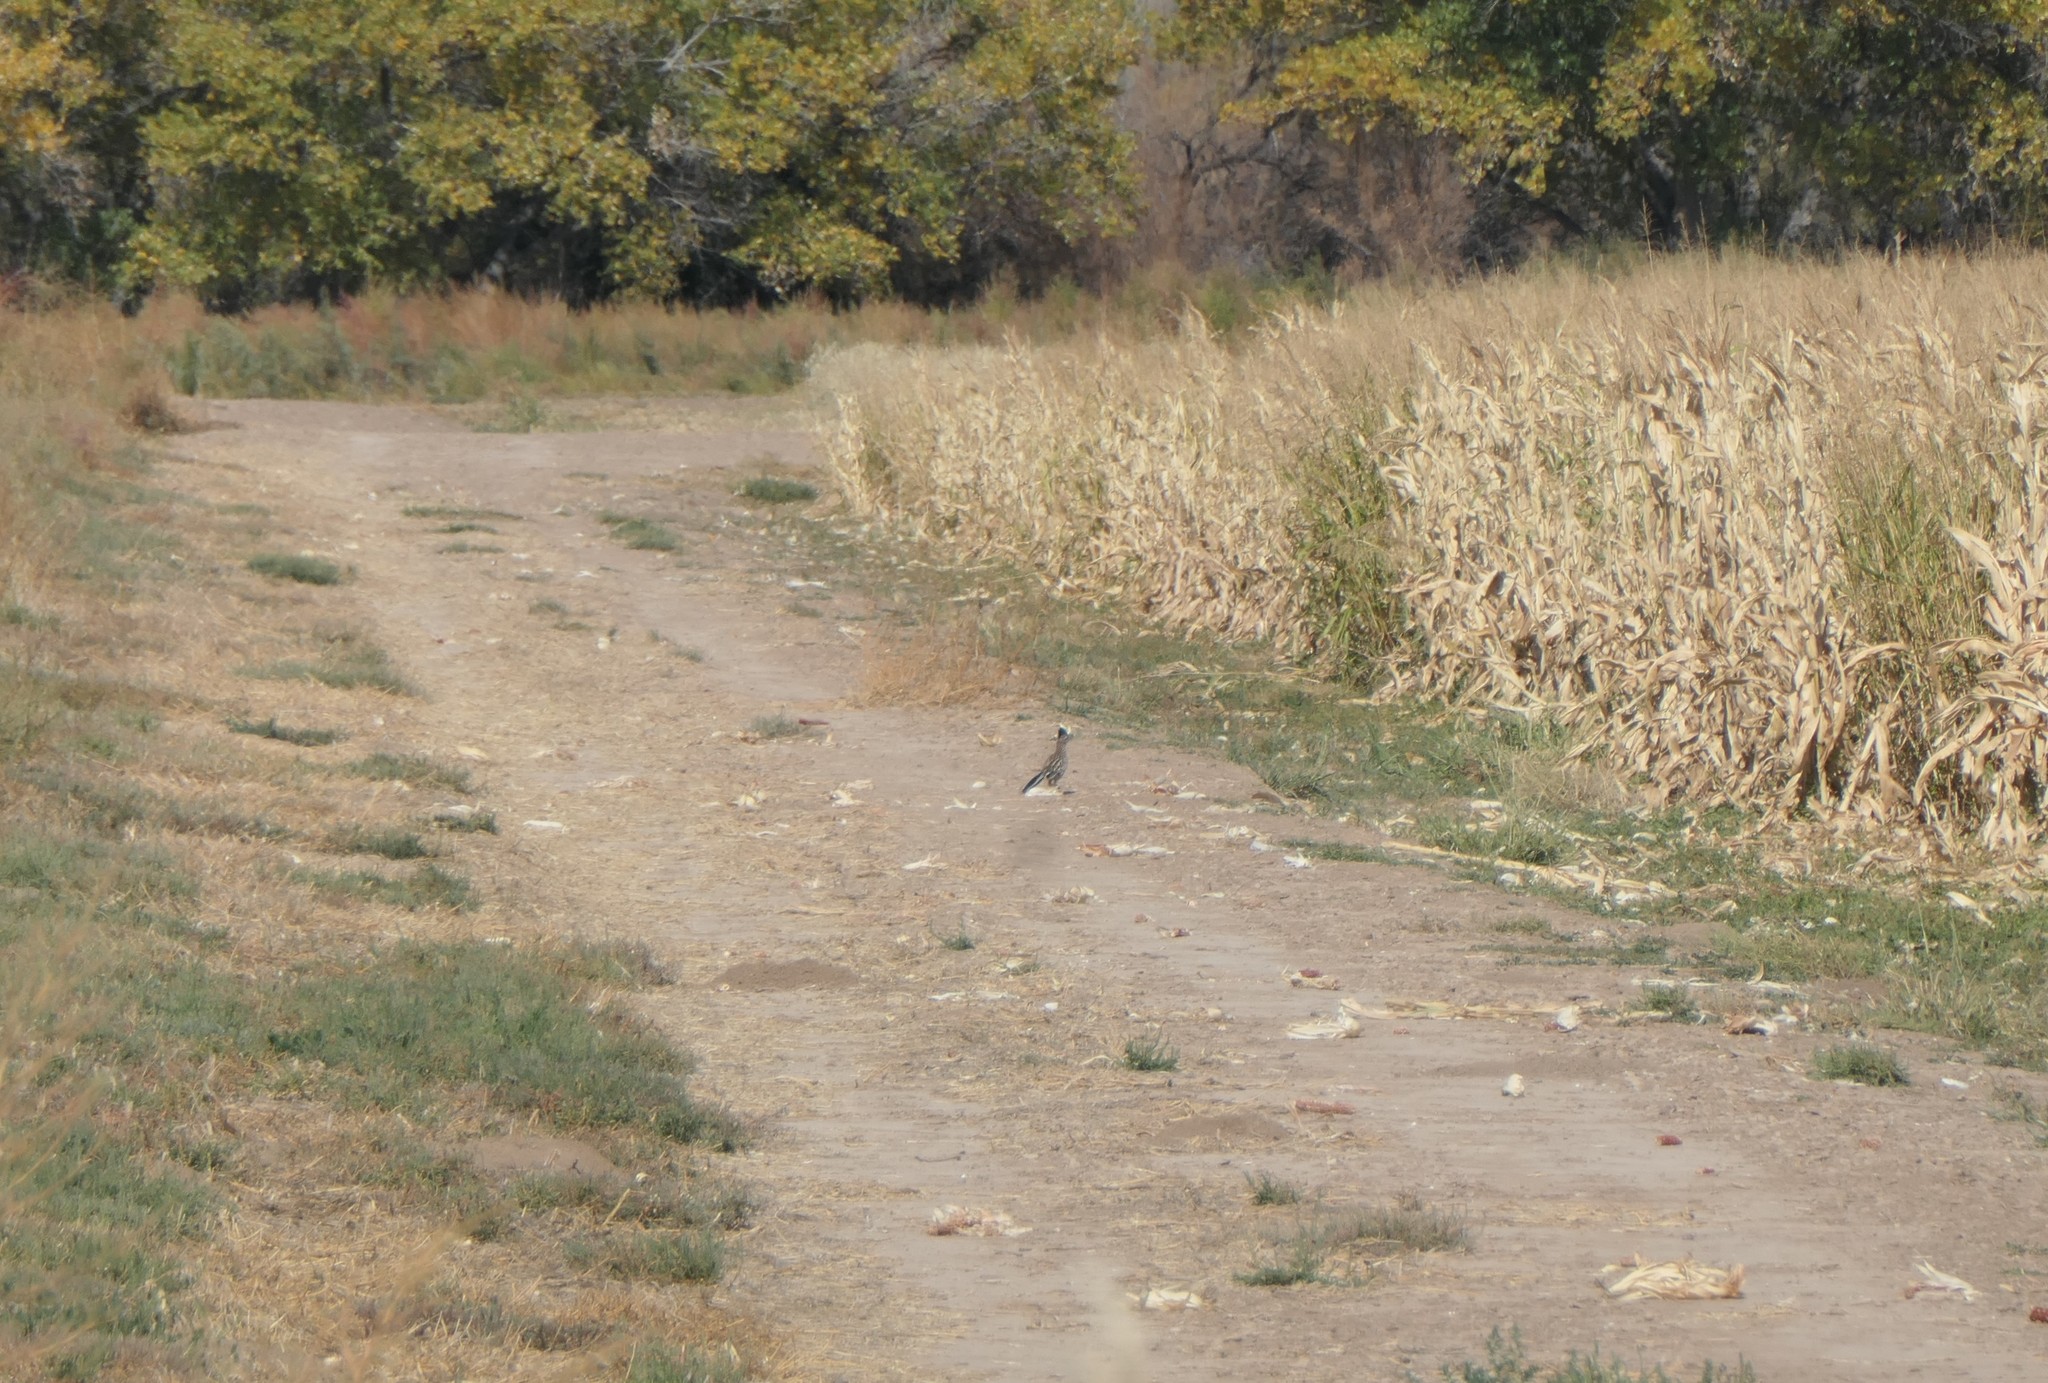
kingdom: Animalia
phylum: Chordata
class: Aves
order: Cuculiformes
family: Cuculidae
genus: Geococcyx
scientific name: Geococcyx californianus
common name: Greater roadrunner
